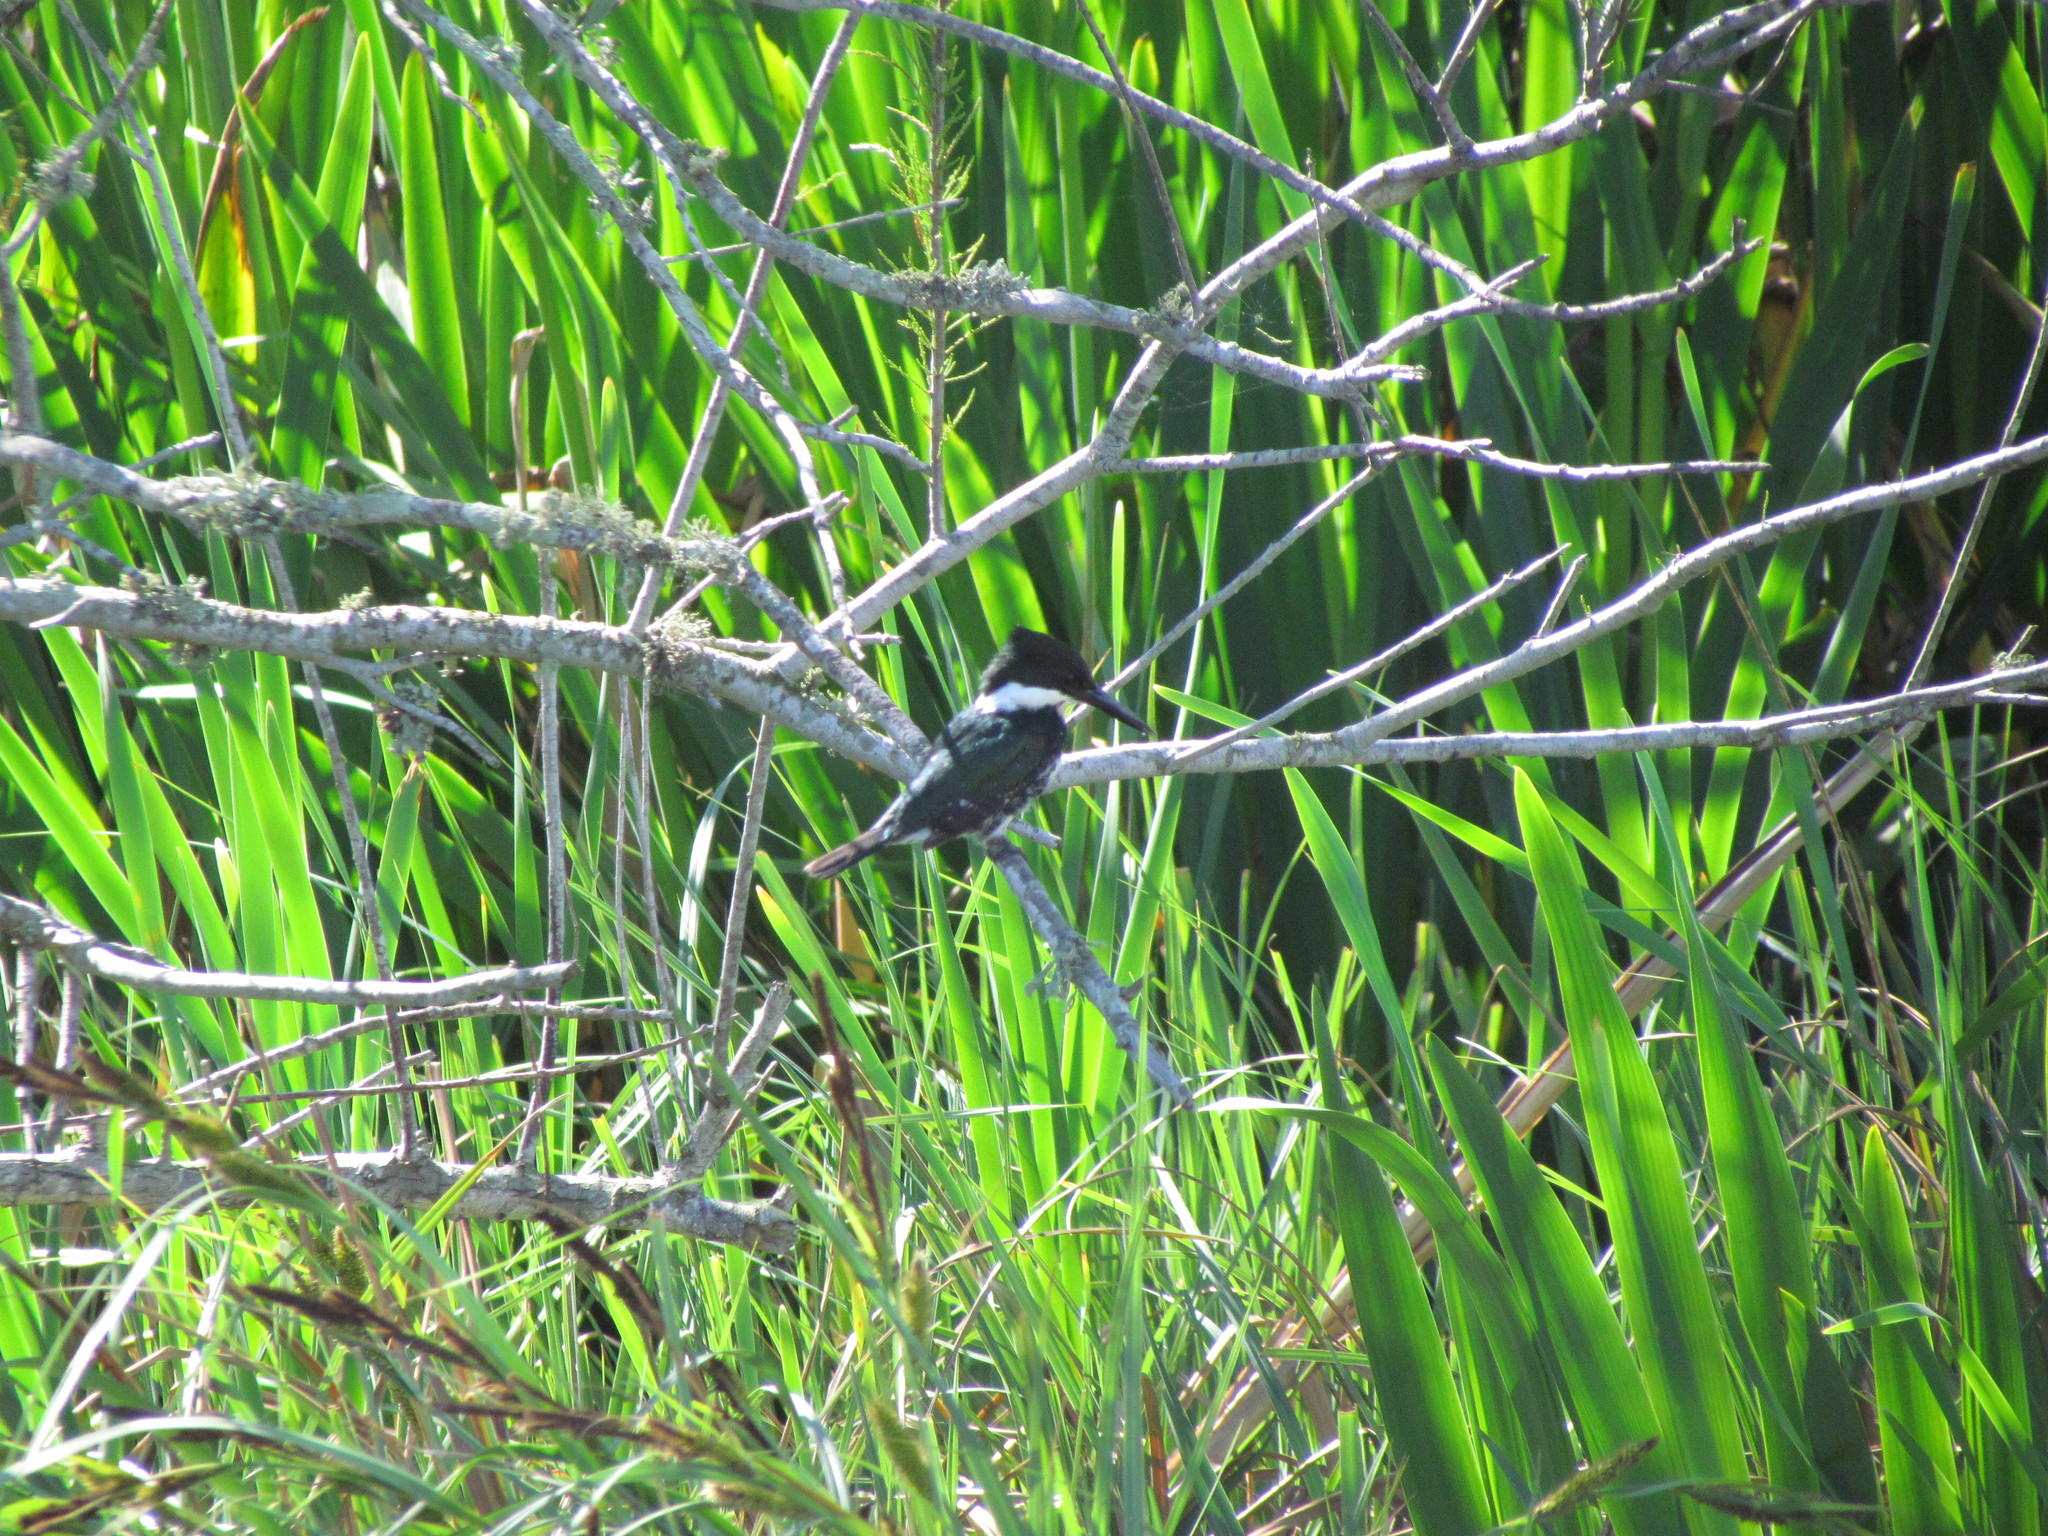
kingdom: Animalia
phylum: Chordata
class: Aves
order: Coraciiformes
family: Alcedinidae
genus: Chloroceryle
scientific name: Chloroceryle americana
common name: Green kingfisher
